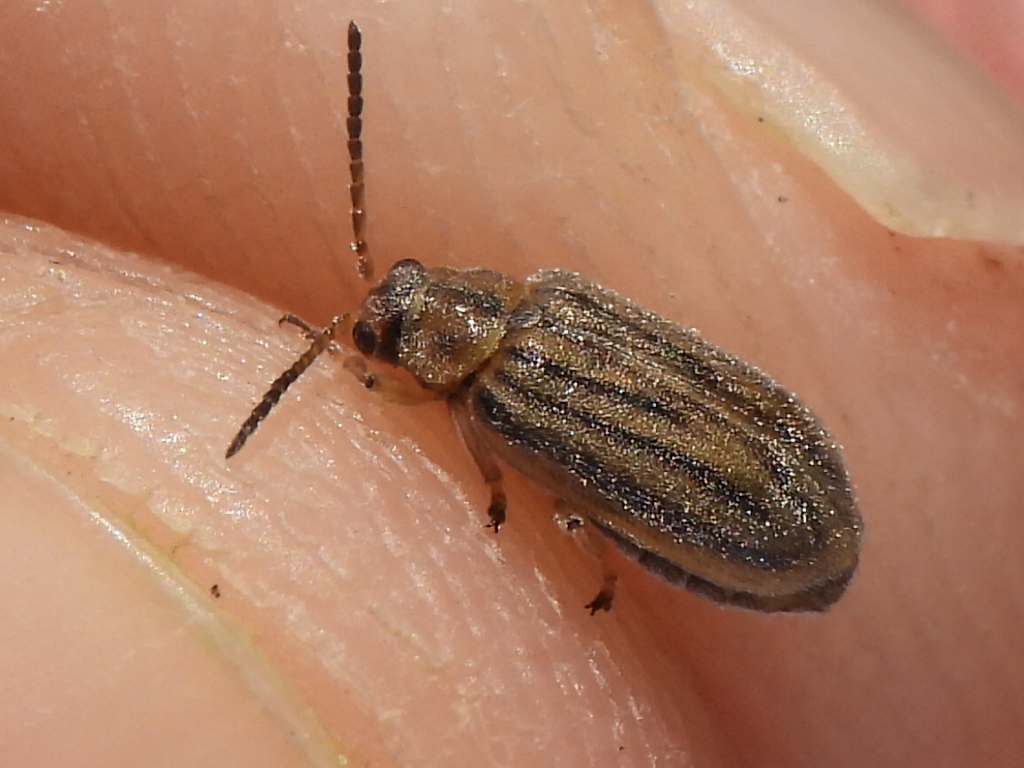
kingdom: Animalia
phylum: Arthropoda
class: Insecta
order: Coleoptera
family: Chrysomelidae
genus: Ophraella
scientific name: Ophraella communa
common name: Ragweed leaf beetle
